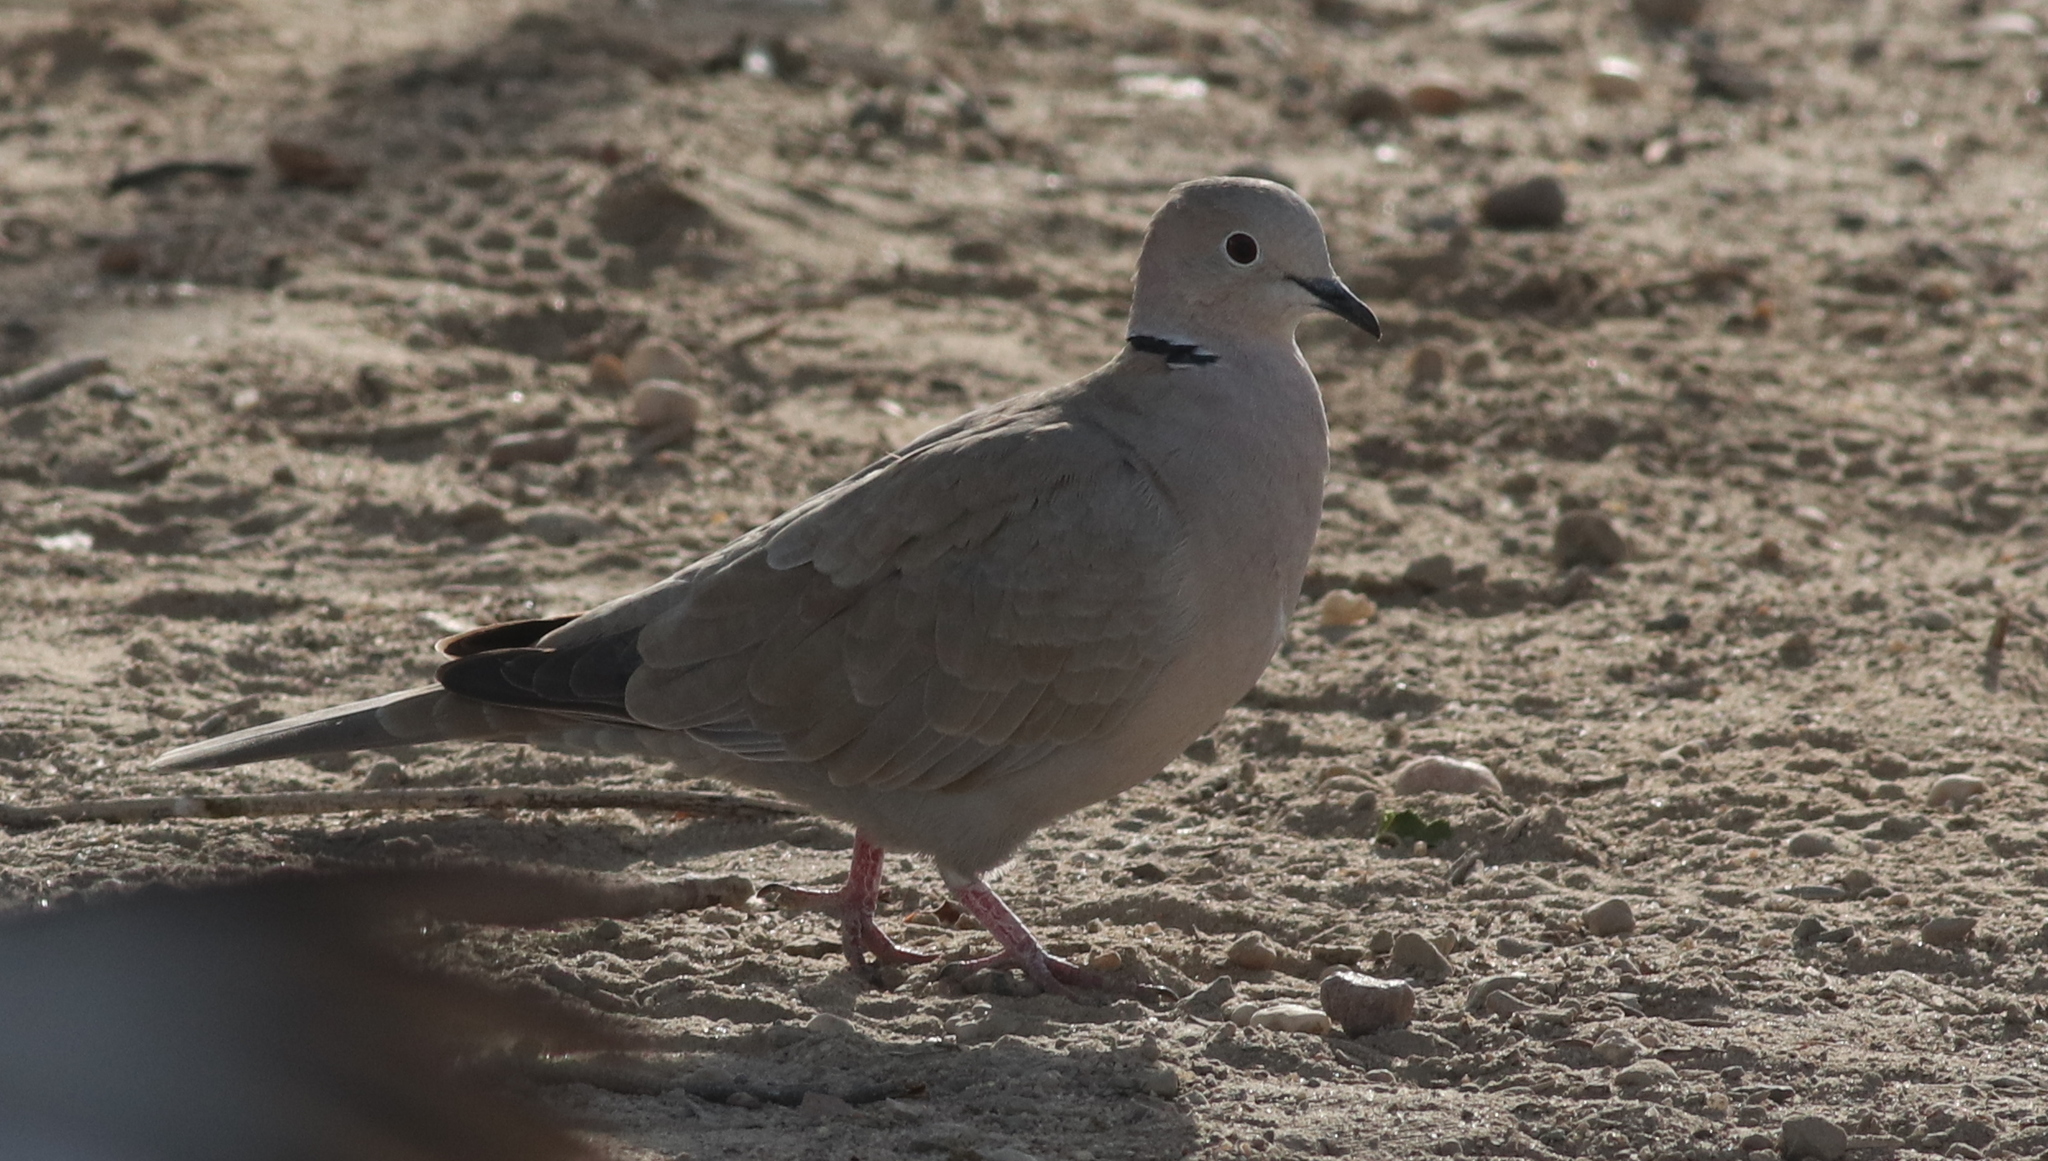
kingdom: Animalia
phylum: Chordata
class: Aves
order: Columbiformes
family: Columbidae
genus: Streptopelia
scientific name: Streptopelia decaocto
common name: Eurasian collared dove
